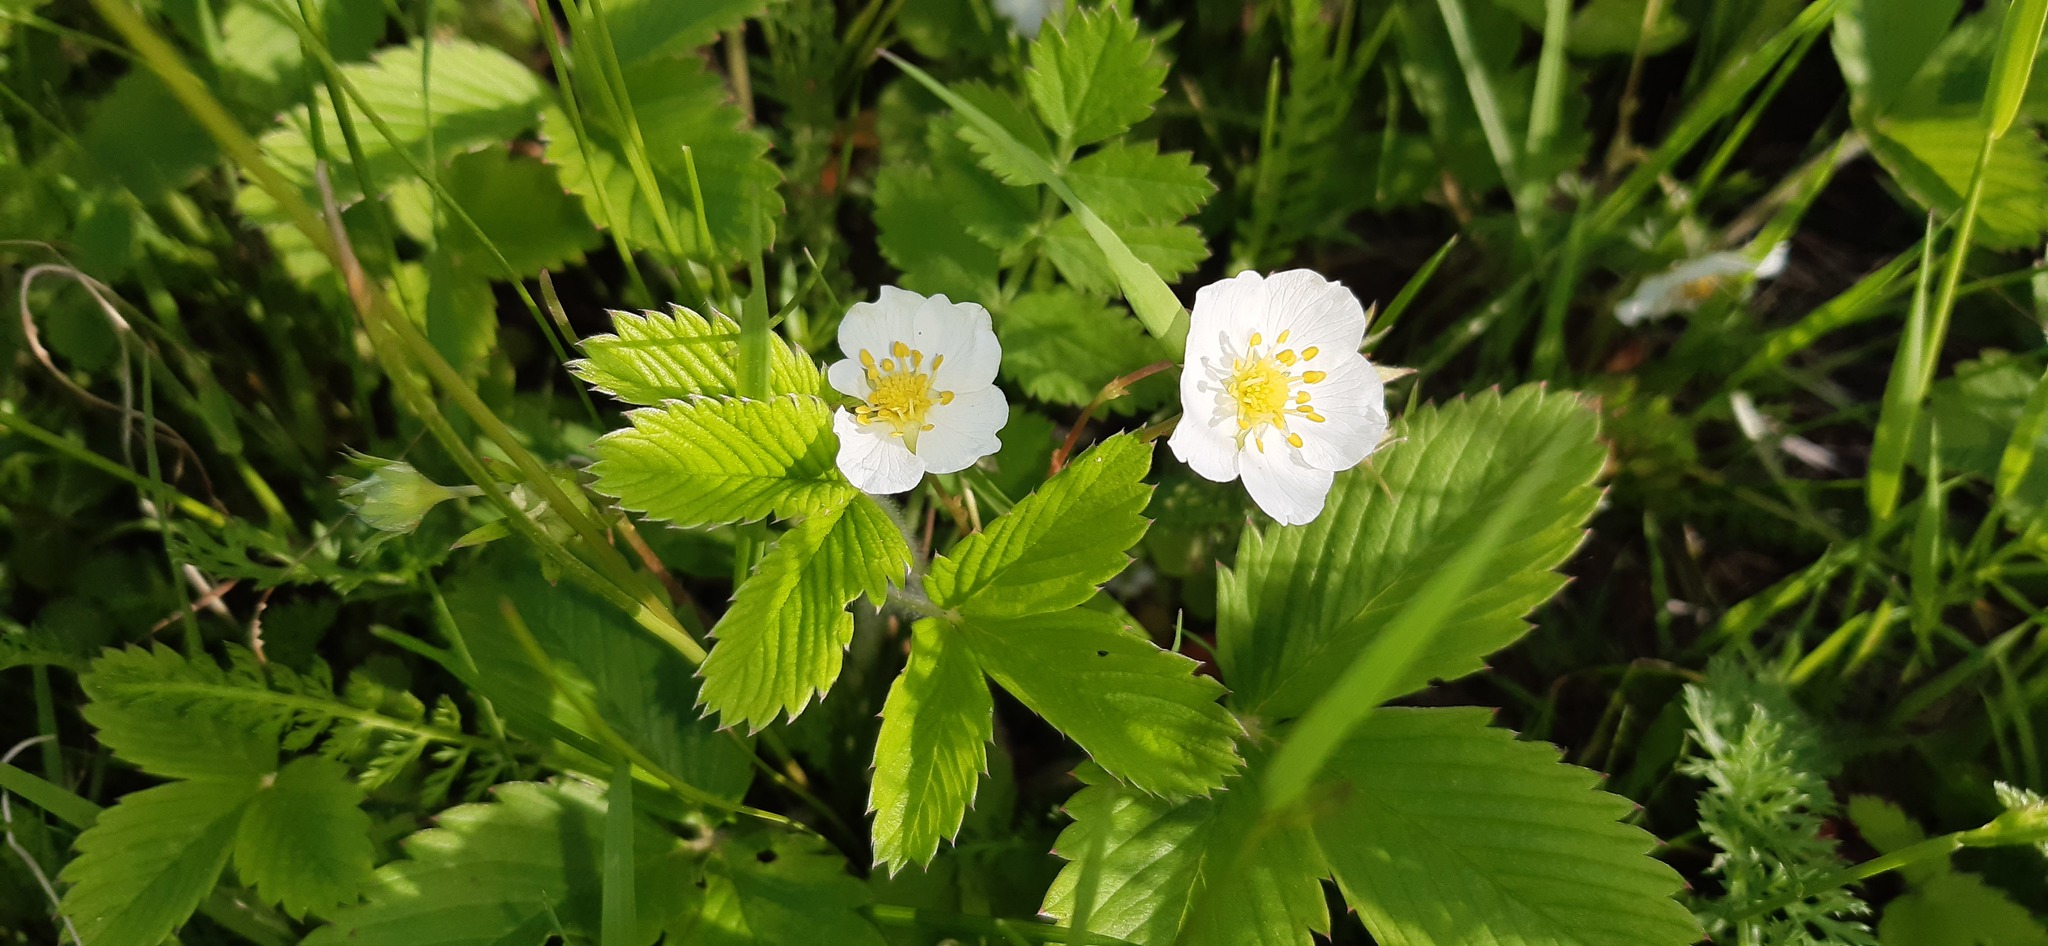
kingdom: Plantae
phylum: Tracheophyta
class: Magnoliopsida
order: Rosales
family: Rosaceae
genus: Fragaria
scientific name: Fragaria viridis
